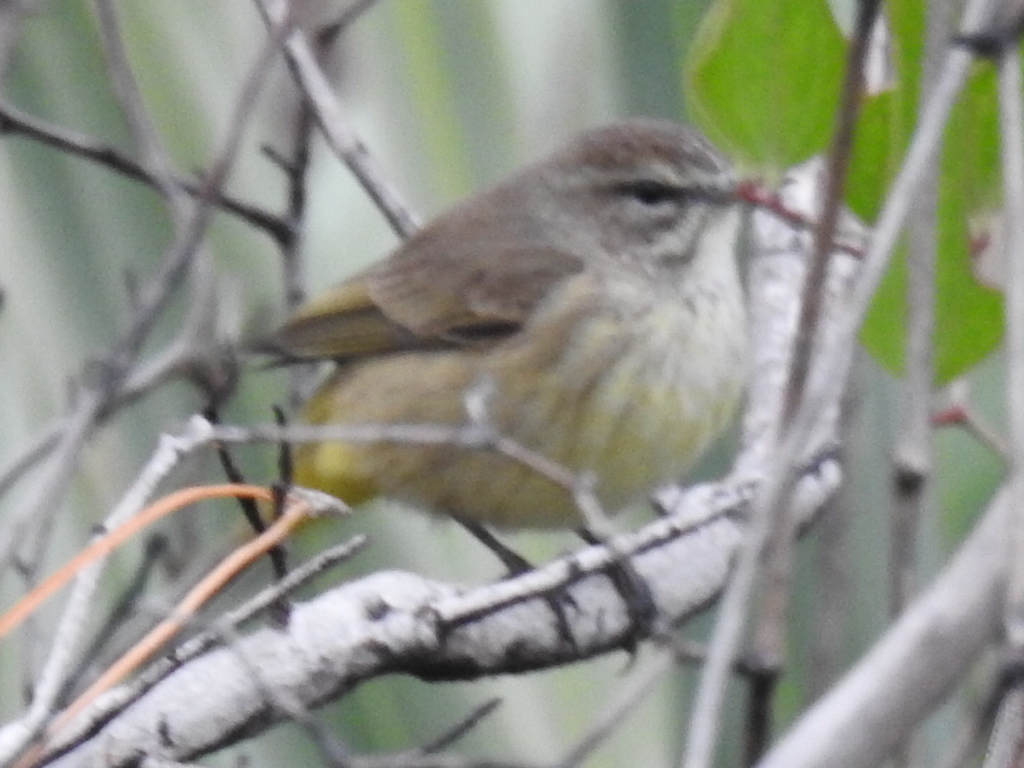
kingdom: Animalia
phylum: Chordata
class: Aves
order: Passeriformes
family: Parulidae
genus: Setophaga
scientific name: Setophaga palmarum
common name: Palm warbler
